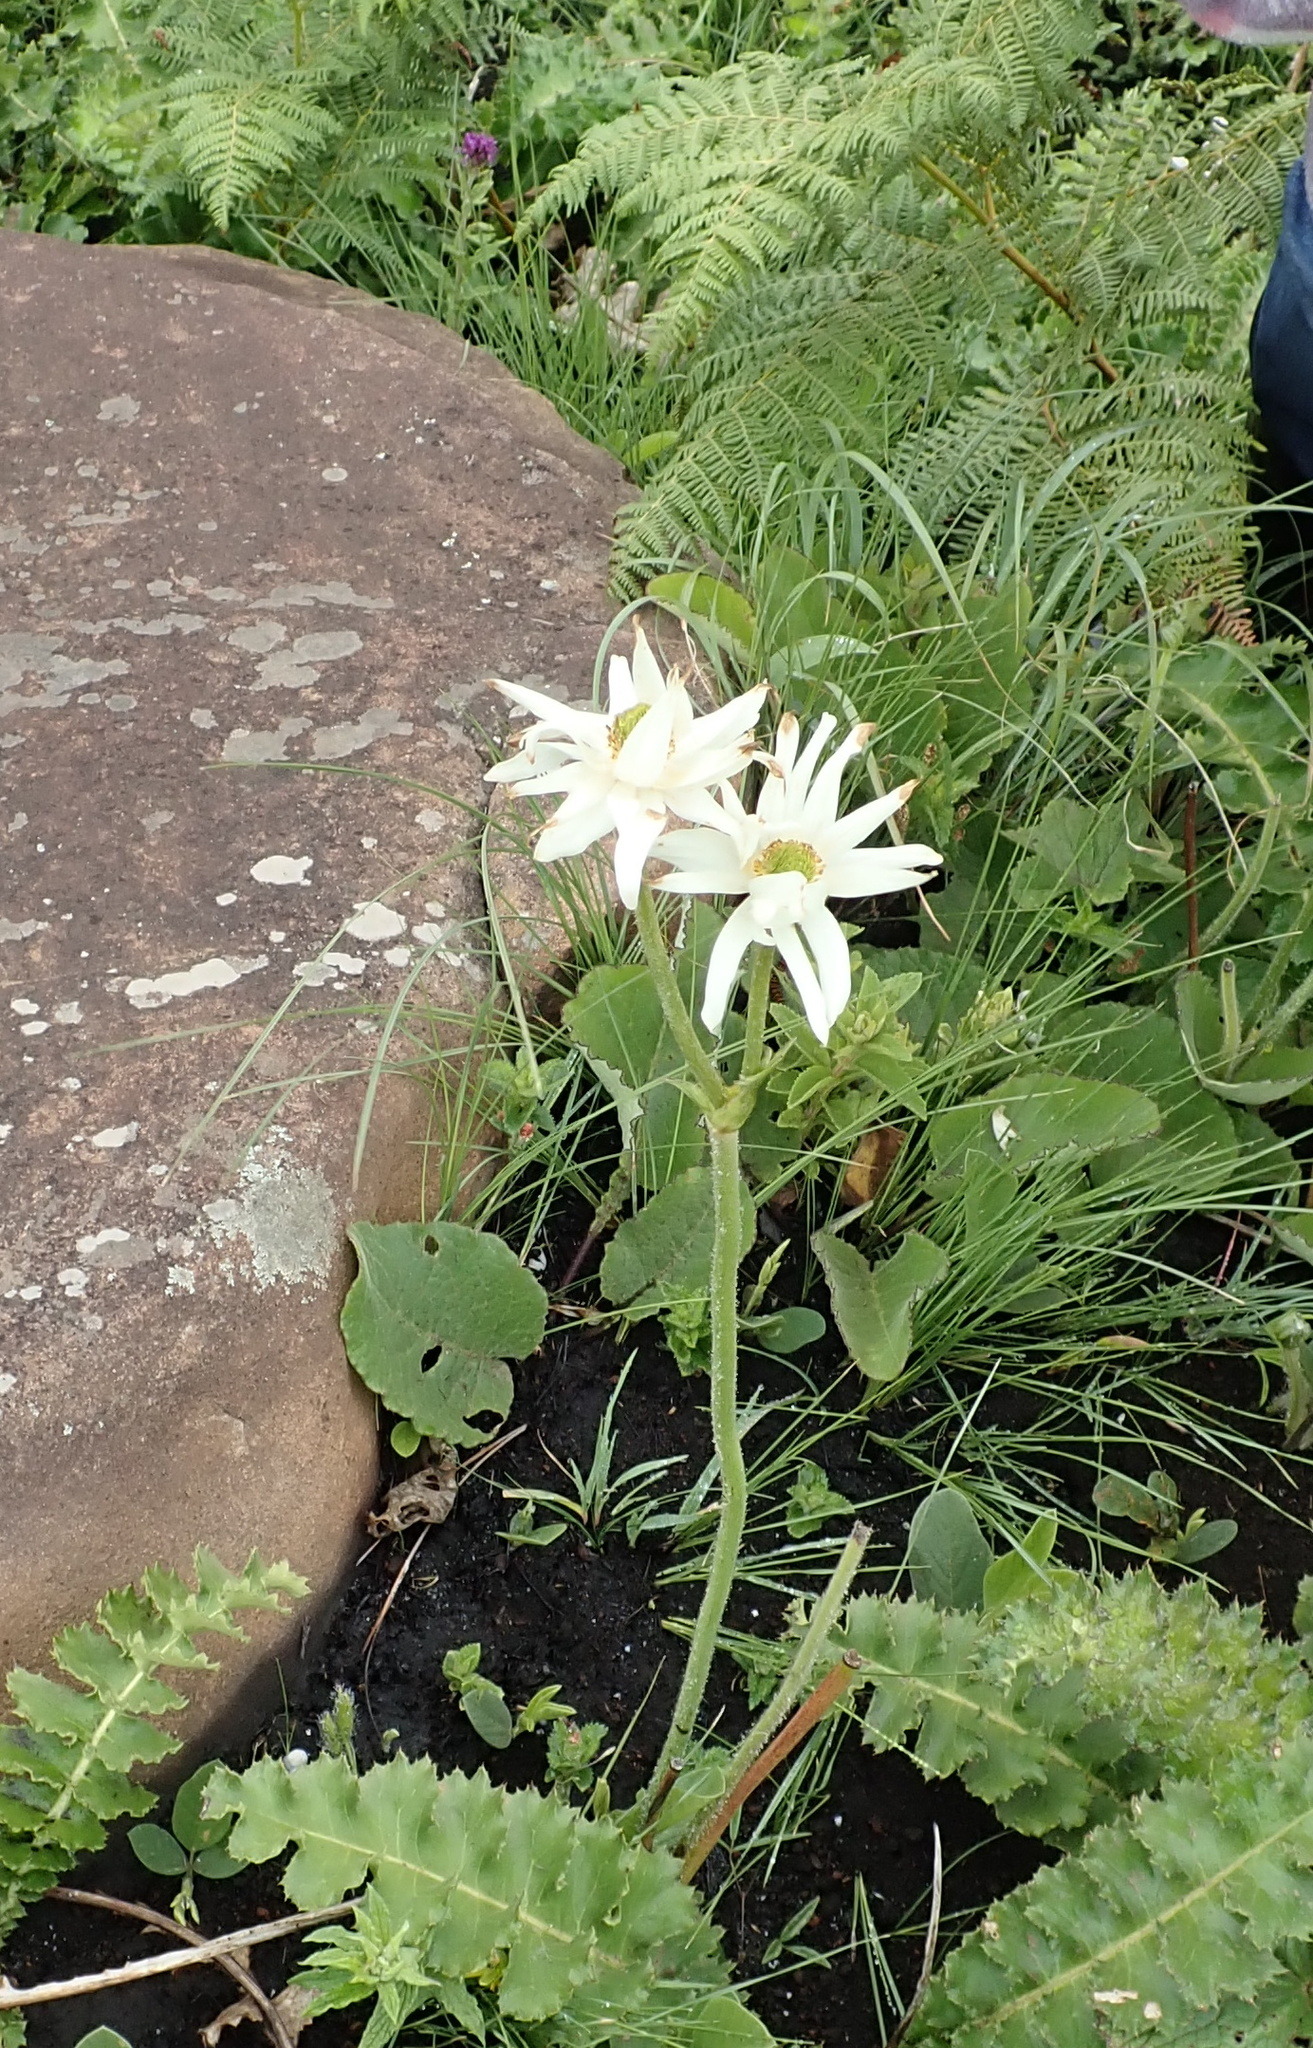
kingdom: Plantae
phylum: Tracheophyta
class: Magnoliopsida
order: Ranunculales
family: Ranunculaceae
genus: Knowltonia
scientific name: Knowltonia fanninii
